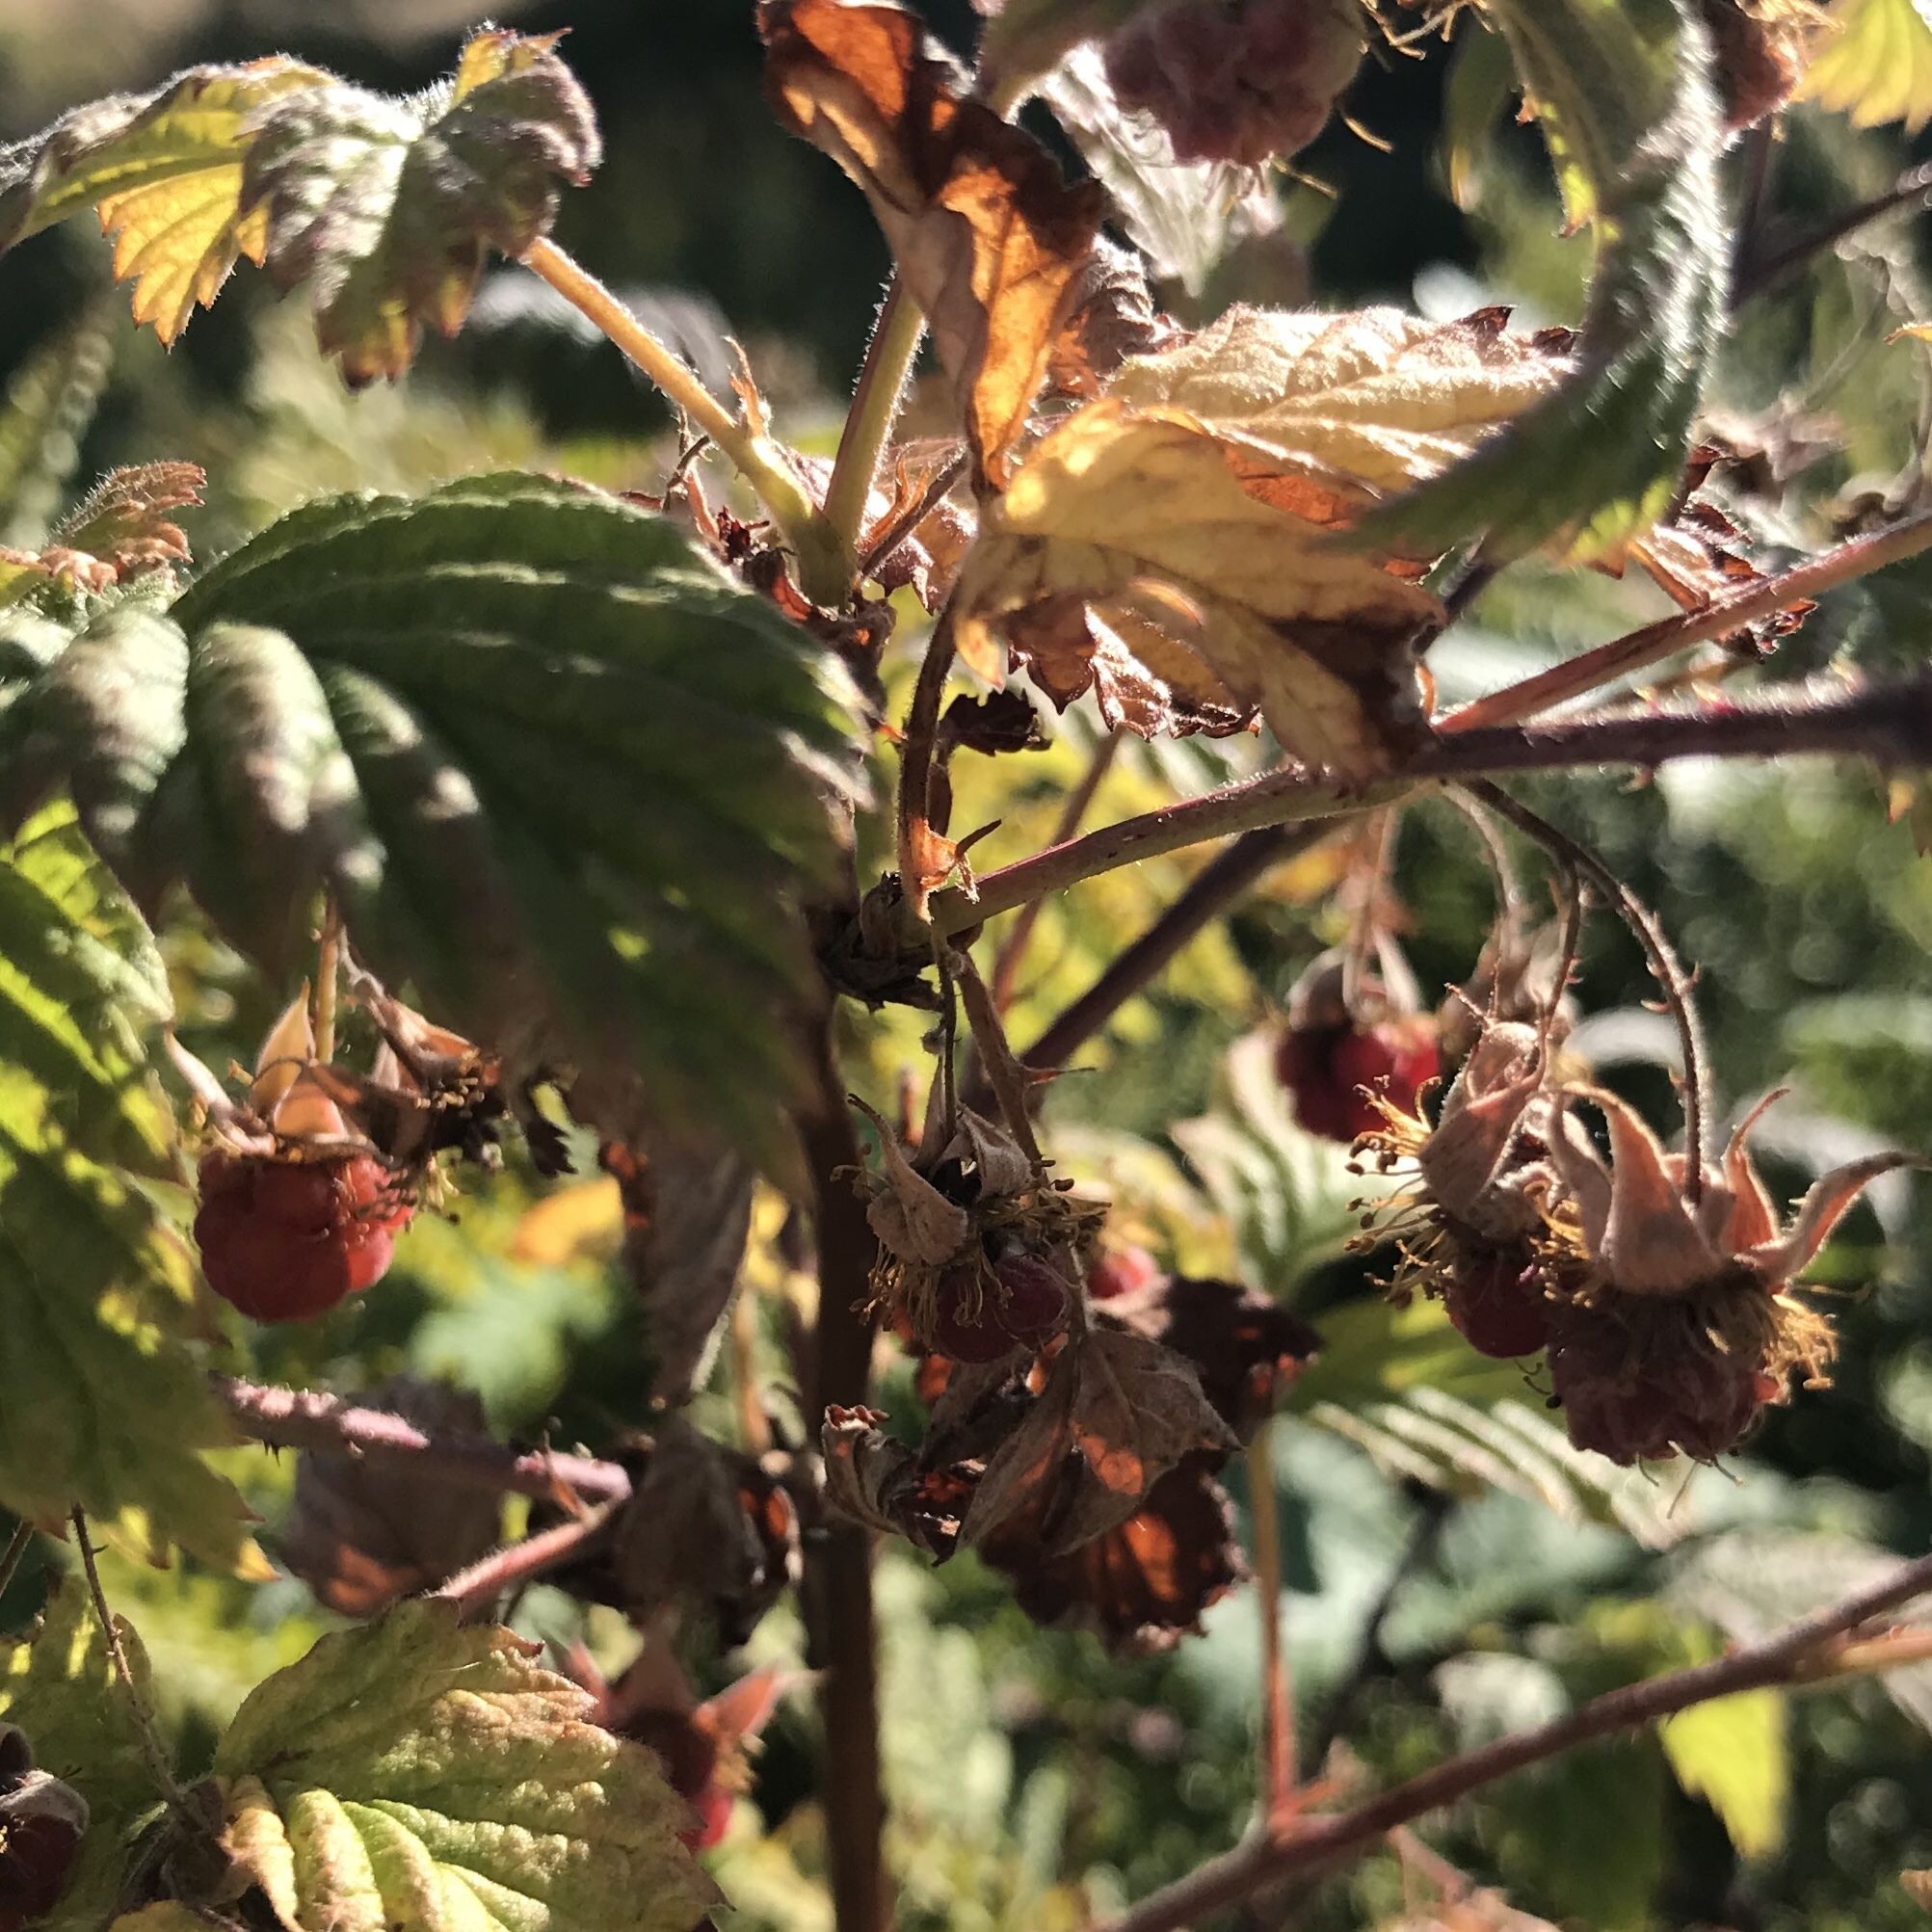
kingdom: Plantae
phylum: Tracheophyta
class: Magnoliopsida
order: Rosales
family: Rosaceae
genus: Rubus
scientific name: Rubus idaeus
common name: Raspberry
